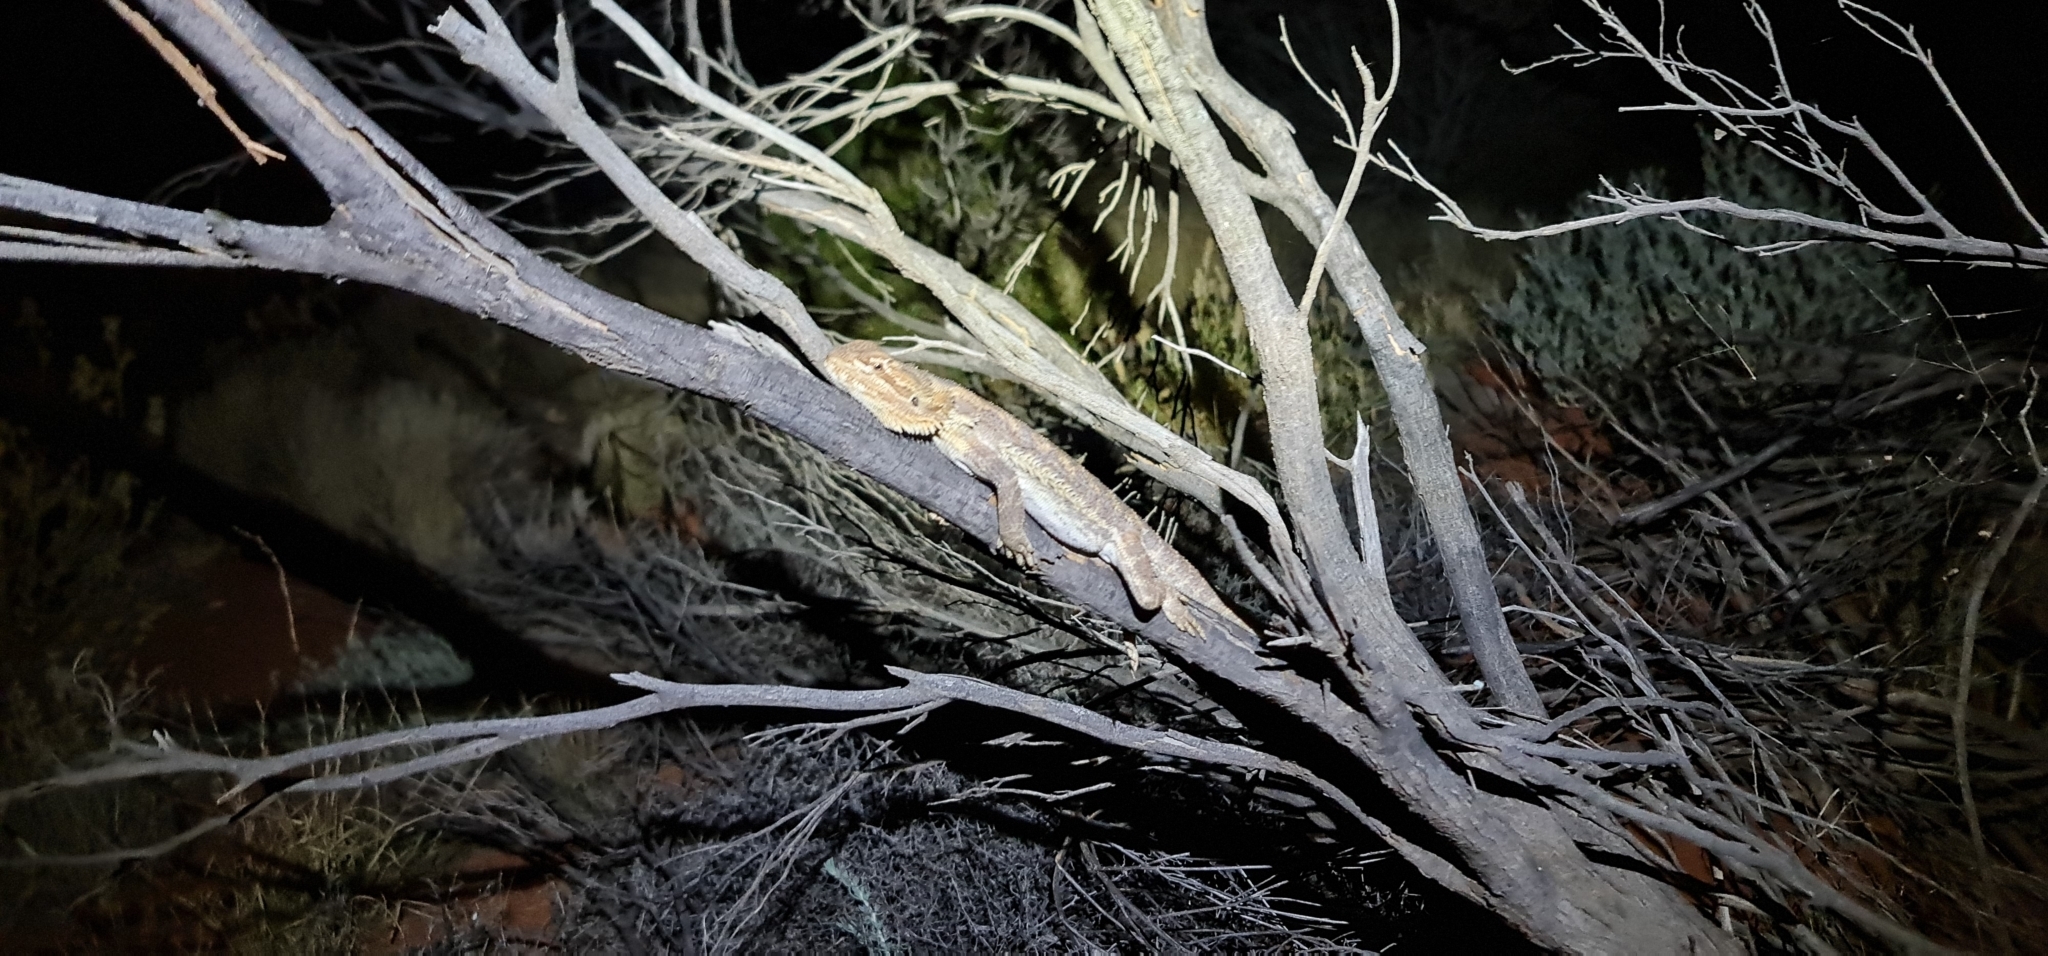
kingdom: Animalia
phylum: Chordata
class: Squamata
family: Agamidae
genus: Pogona
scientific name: Pogona vitticeps
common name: Central bearded dragon
